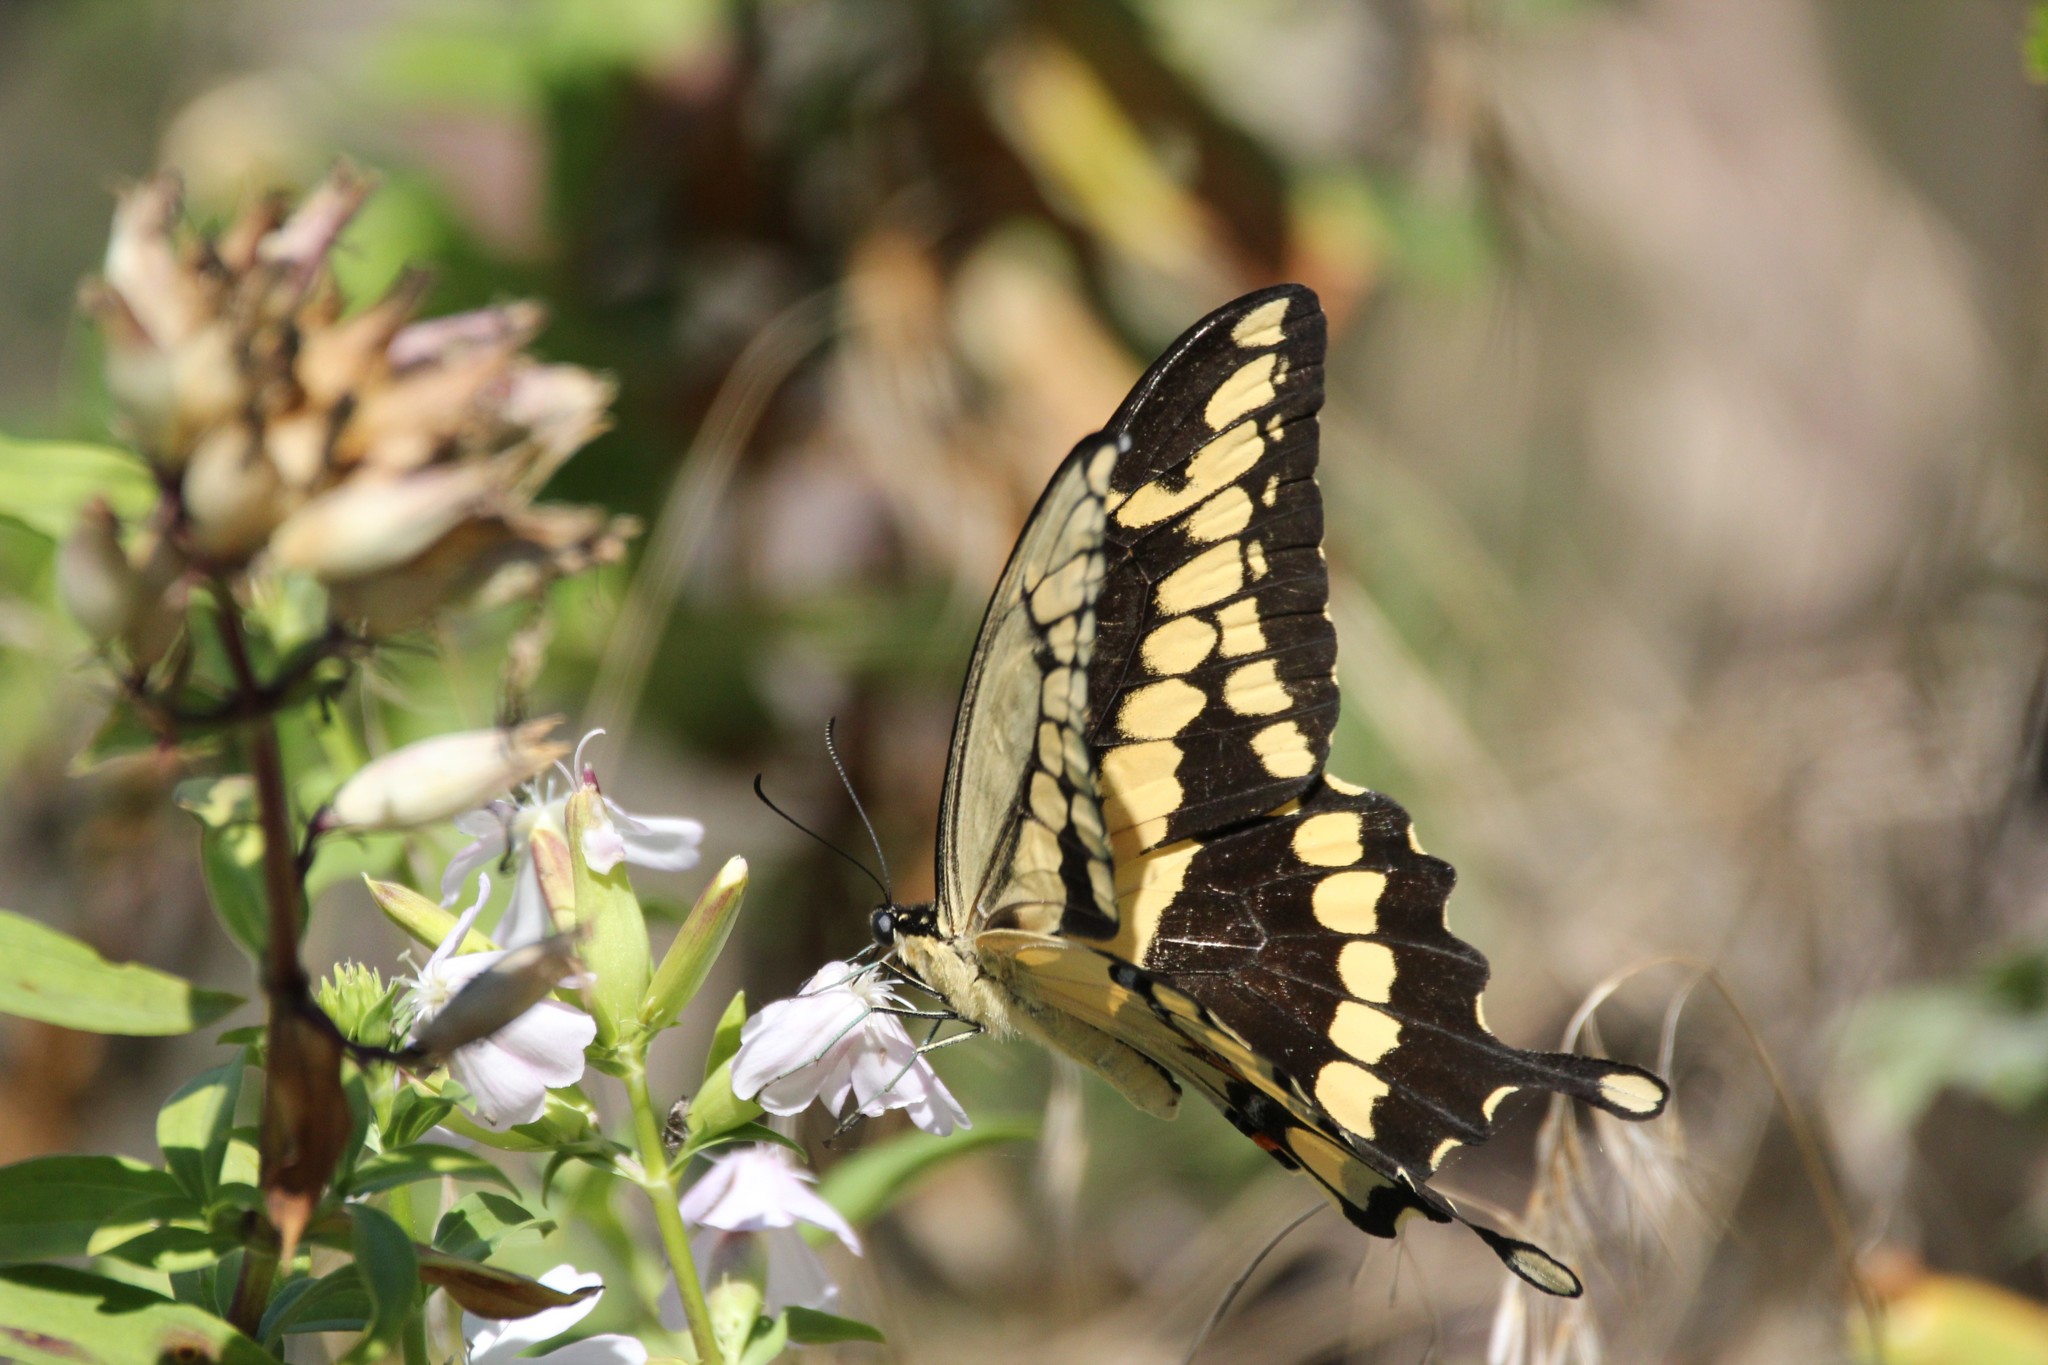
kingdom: Animalia
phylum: Arthropoda
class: Insecta
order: Lepidoptera
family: Papilionidae
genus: Papilio
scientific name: Papilio cresphontes
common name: Giant swallowtail
